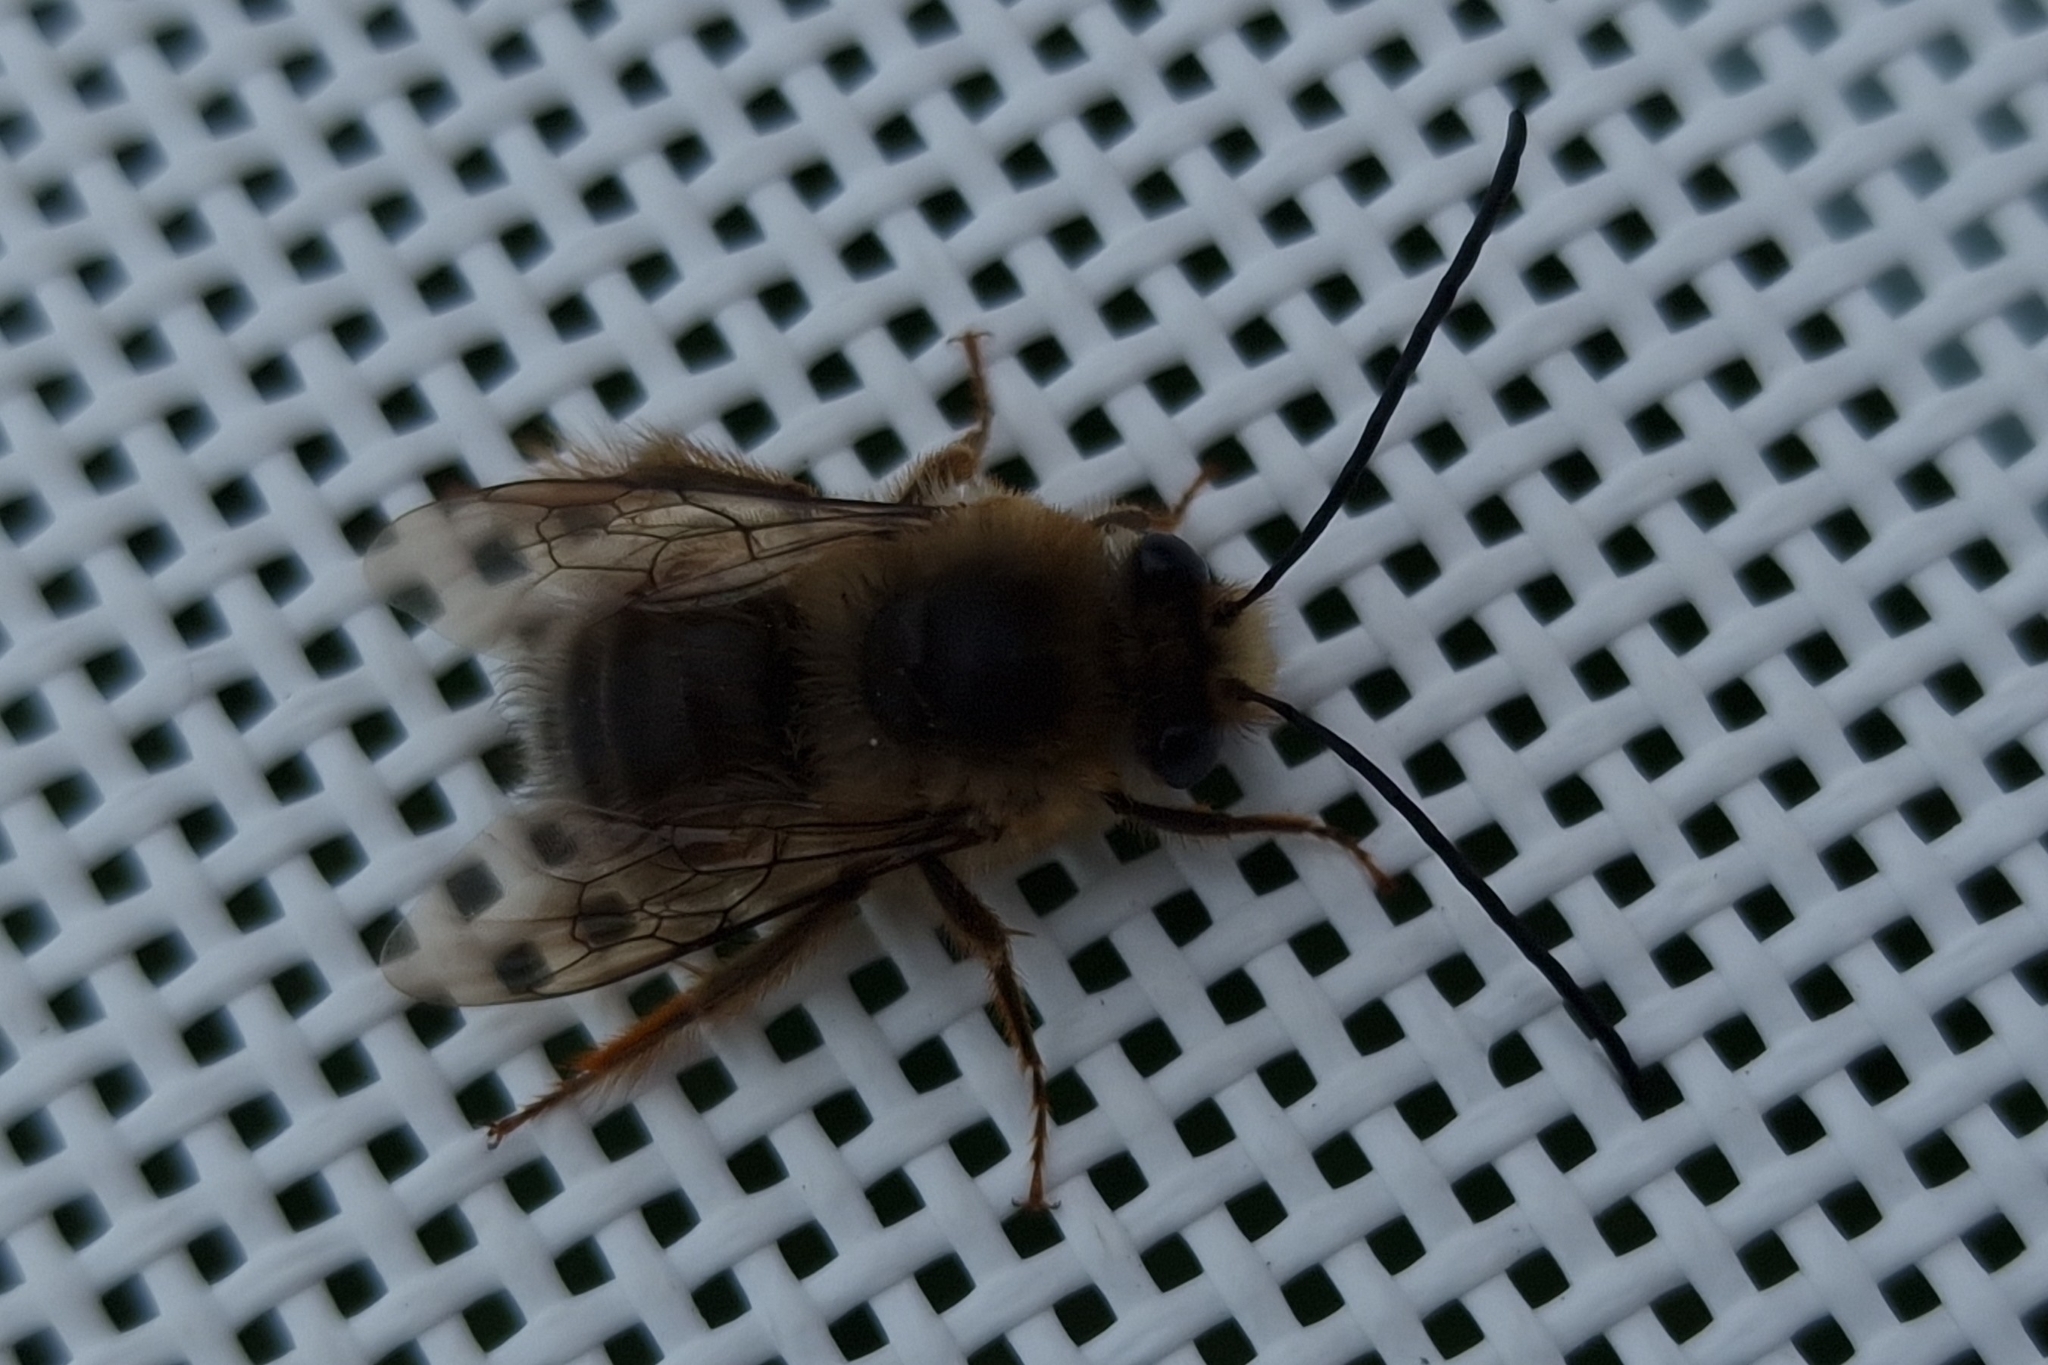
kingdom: Animalia
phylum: Arthropoda
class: Insecta
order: Hymenoptera
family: Apidae
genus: Eucera
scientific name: Eucera gracilipes
